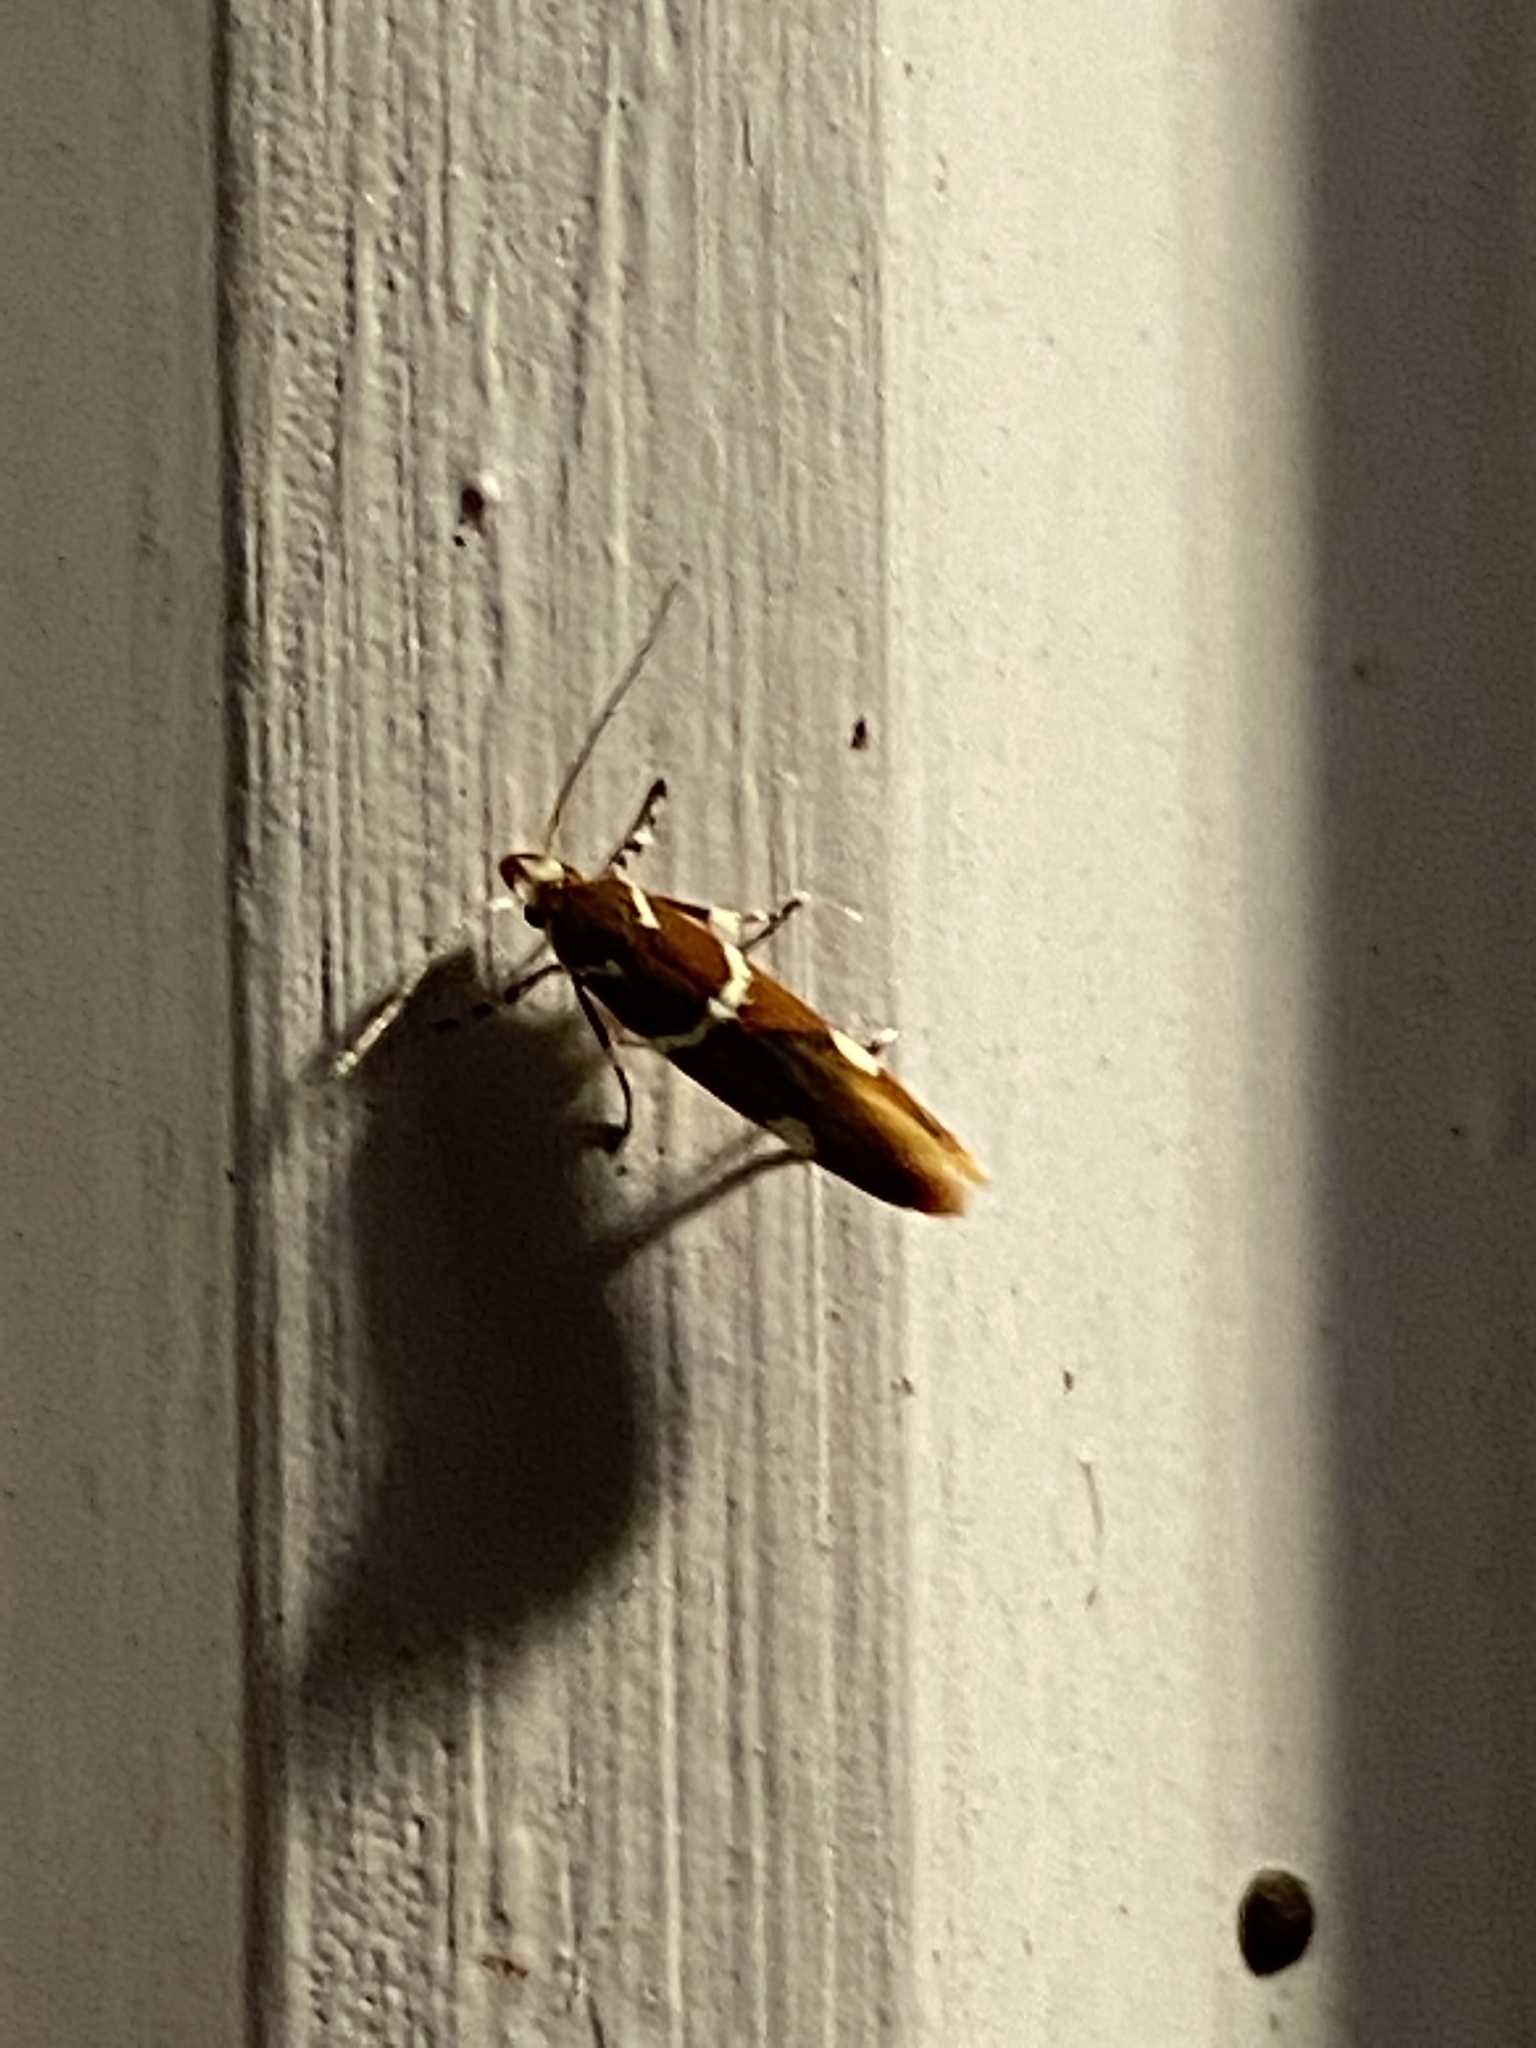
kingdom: Animalia
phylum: Arthropoda
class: Insecta
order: Lepidoptera
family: Oecophoridae
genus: Promalactis
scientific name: Promalactis suzukiella
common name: Moth
